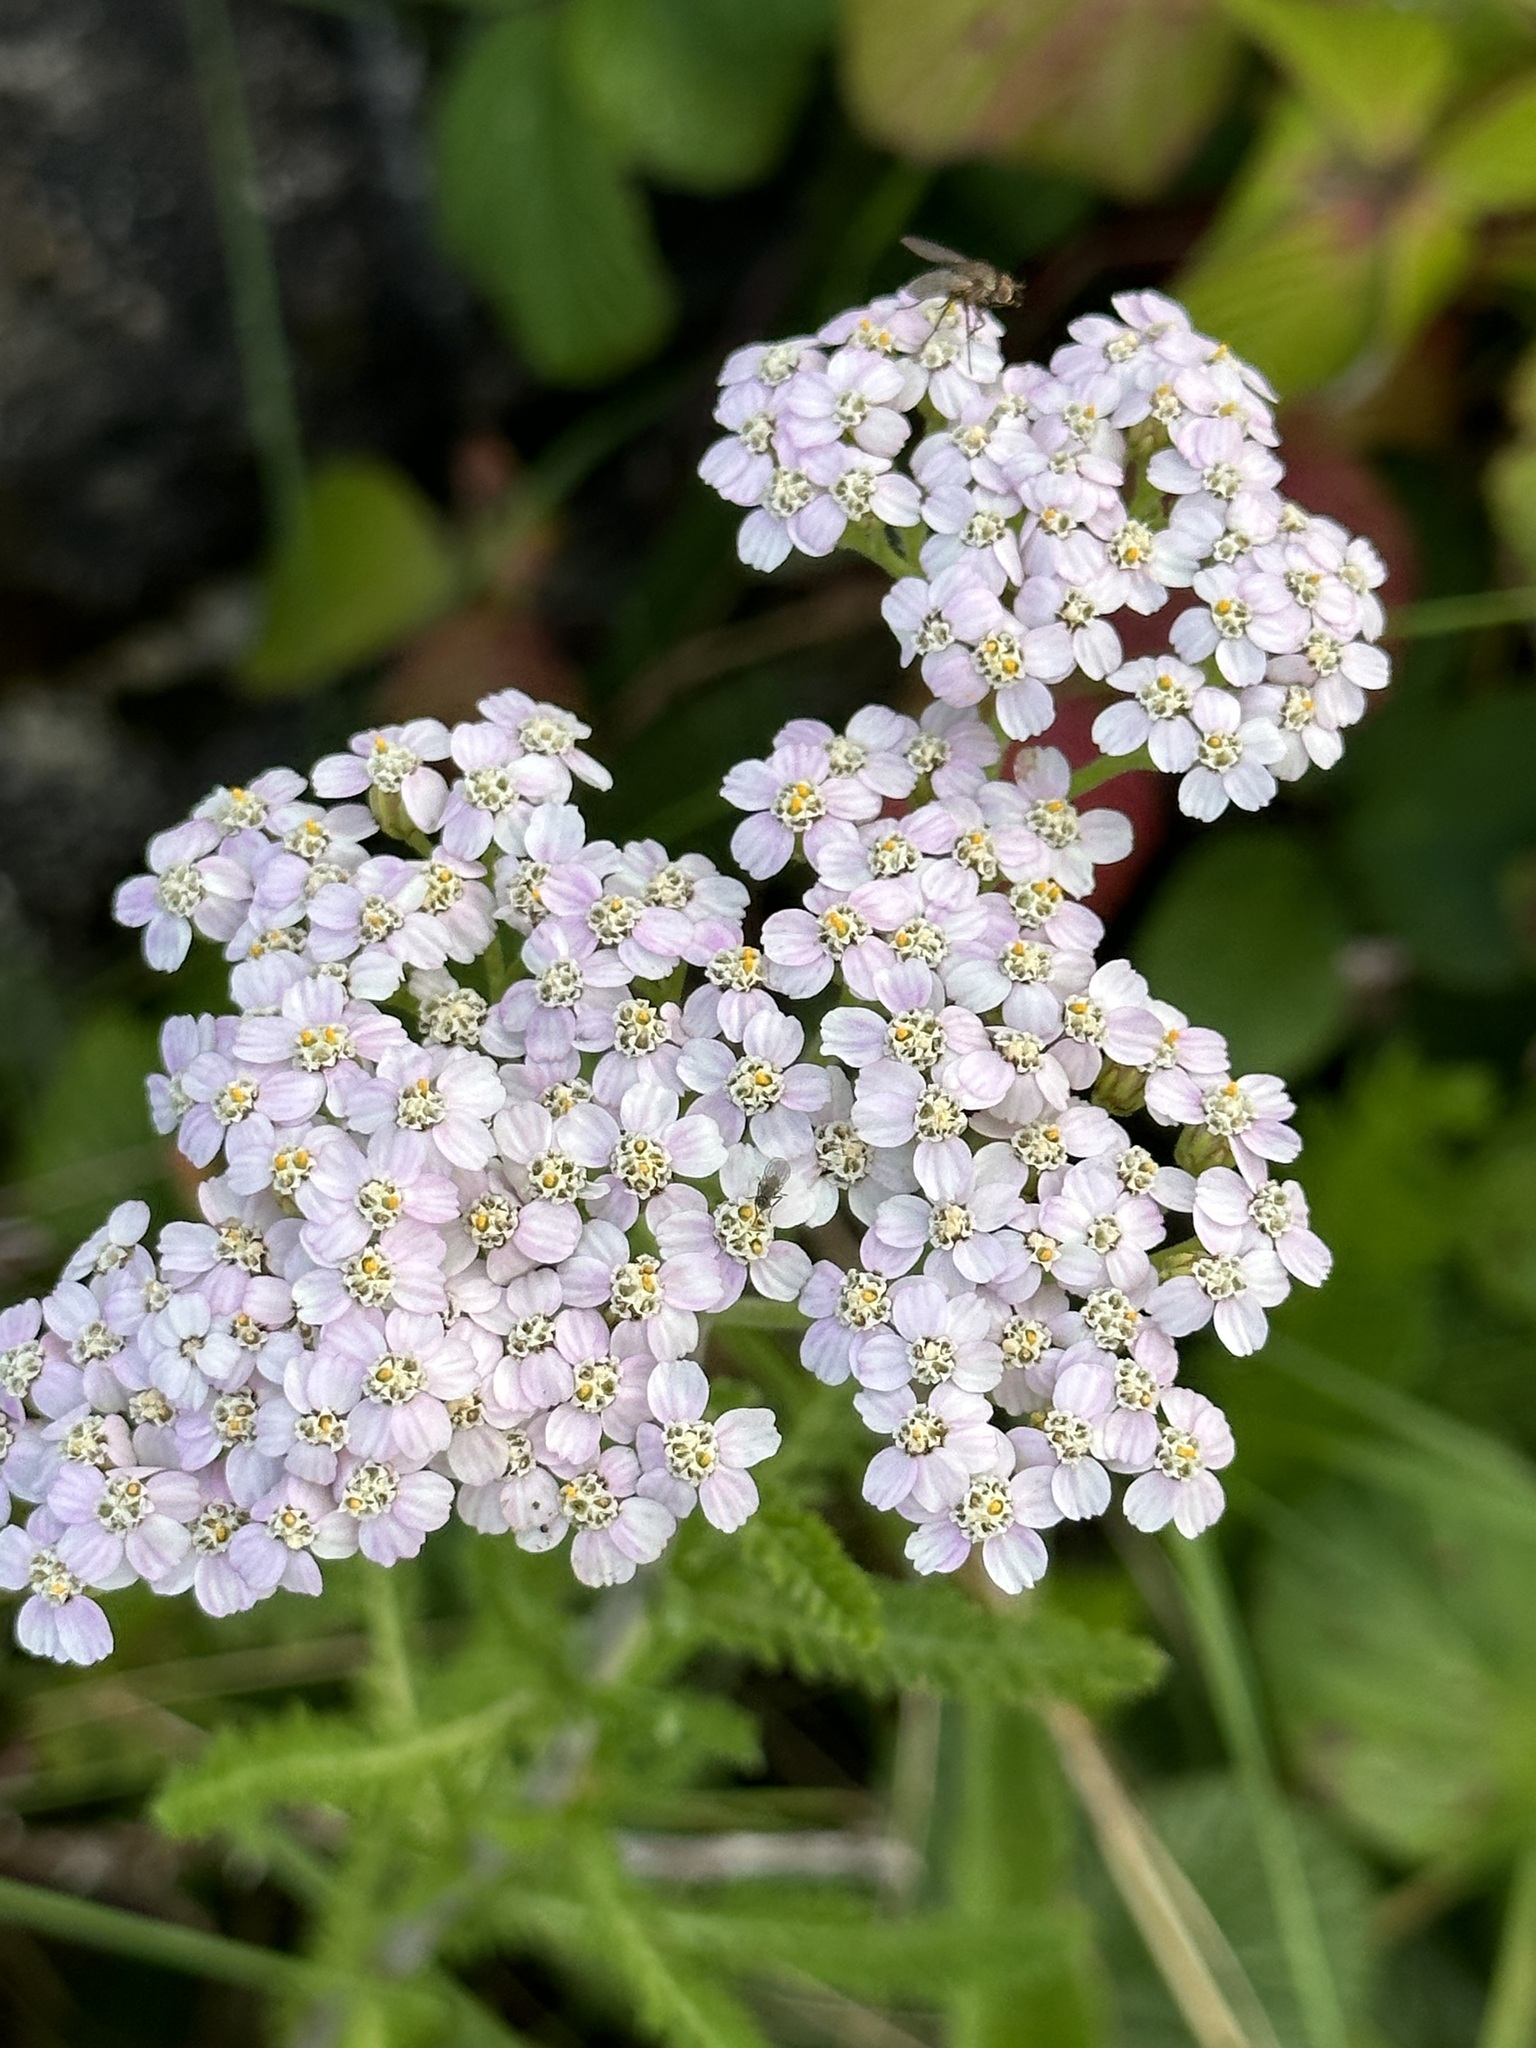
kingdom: Plantae
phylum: Tracheophyta
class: Magnoliopsida
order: Asterales
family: Asteraceae
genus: Achillea
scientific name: Achillea millefolium
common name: Yarrow
